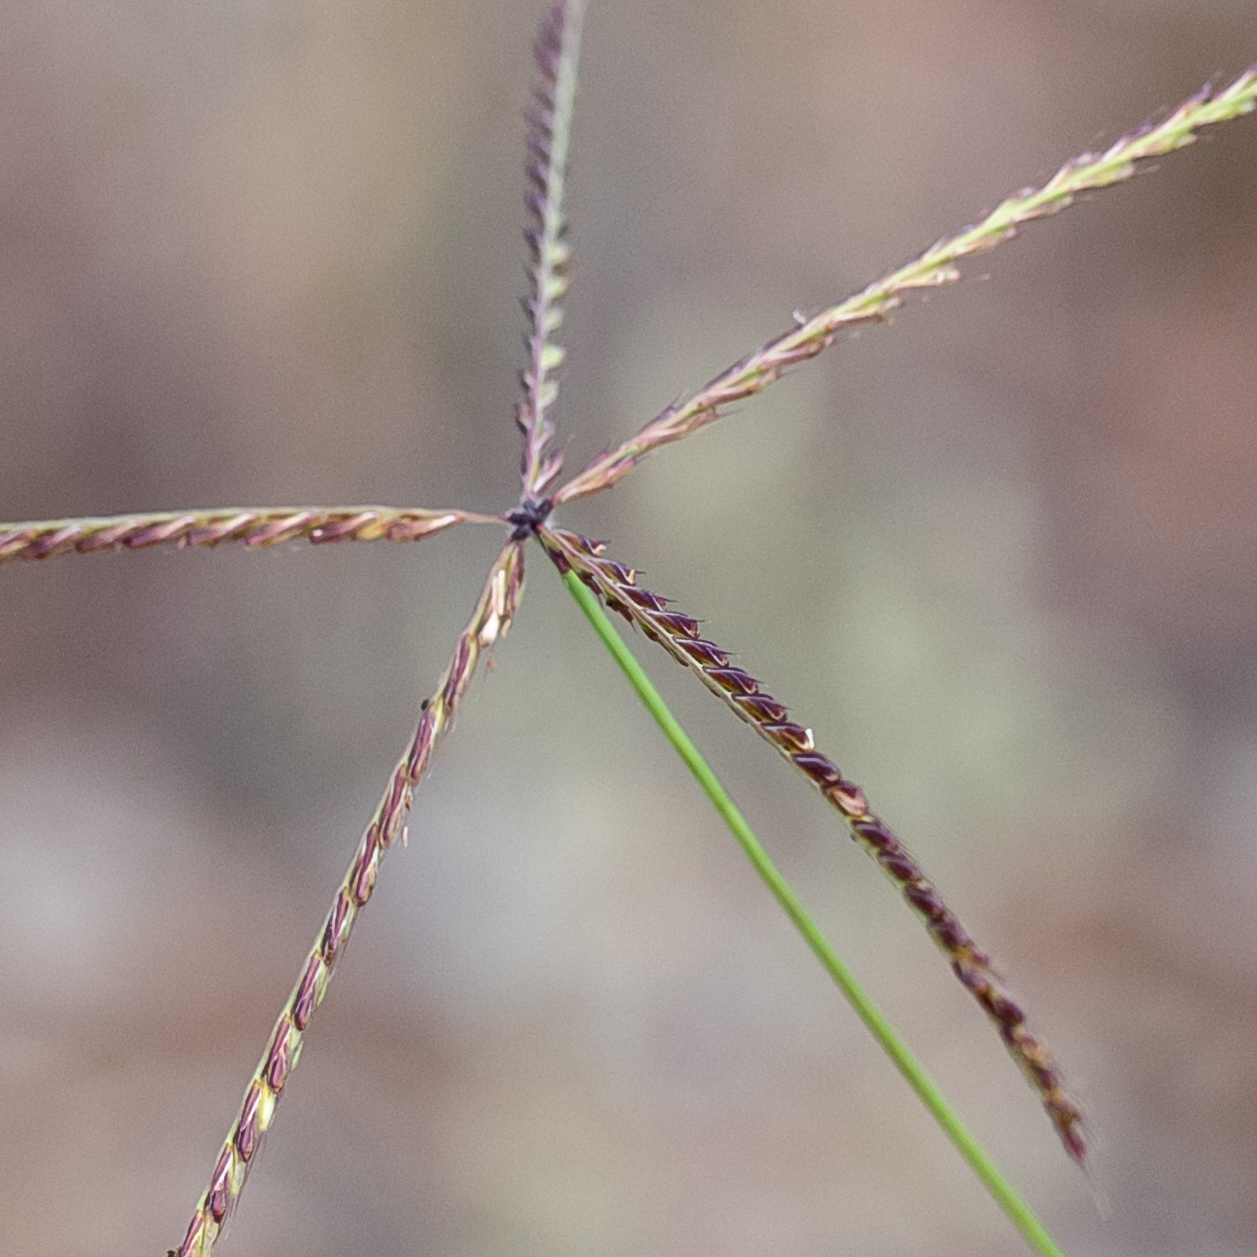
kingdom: Plantae
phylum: Tracheophyta
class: Liliopsida
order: Poales
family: Poaceae
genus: Chloris
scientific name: Chloris ventricosa
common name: Australian windmill grass
